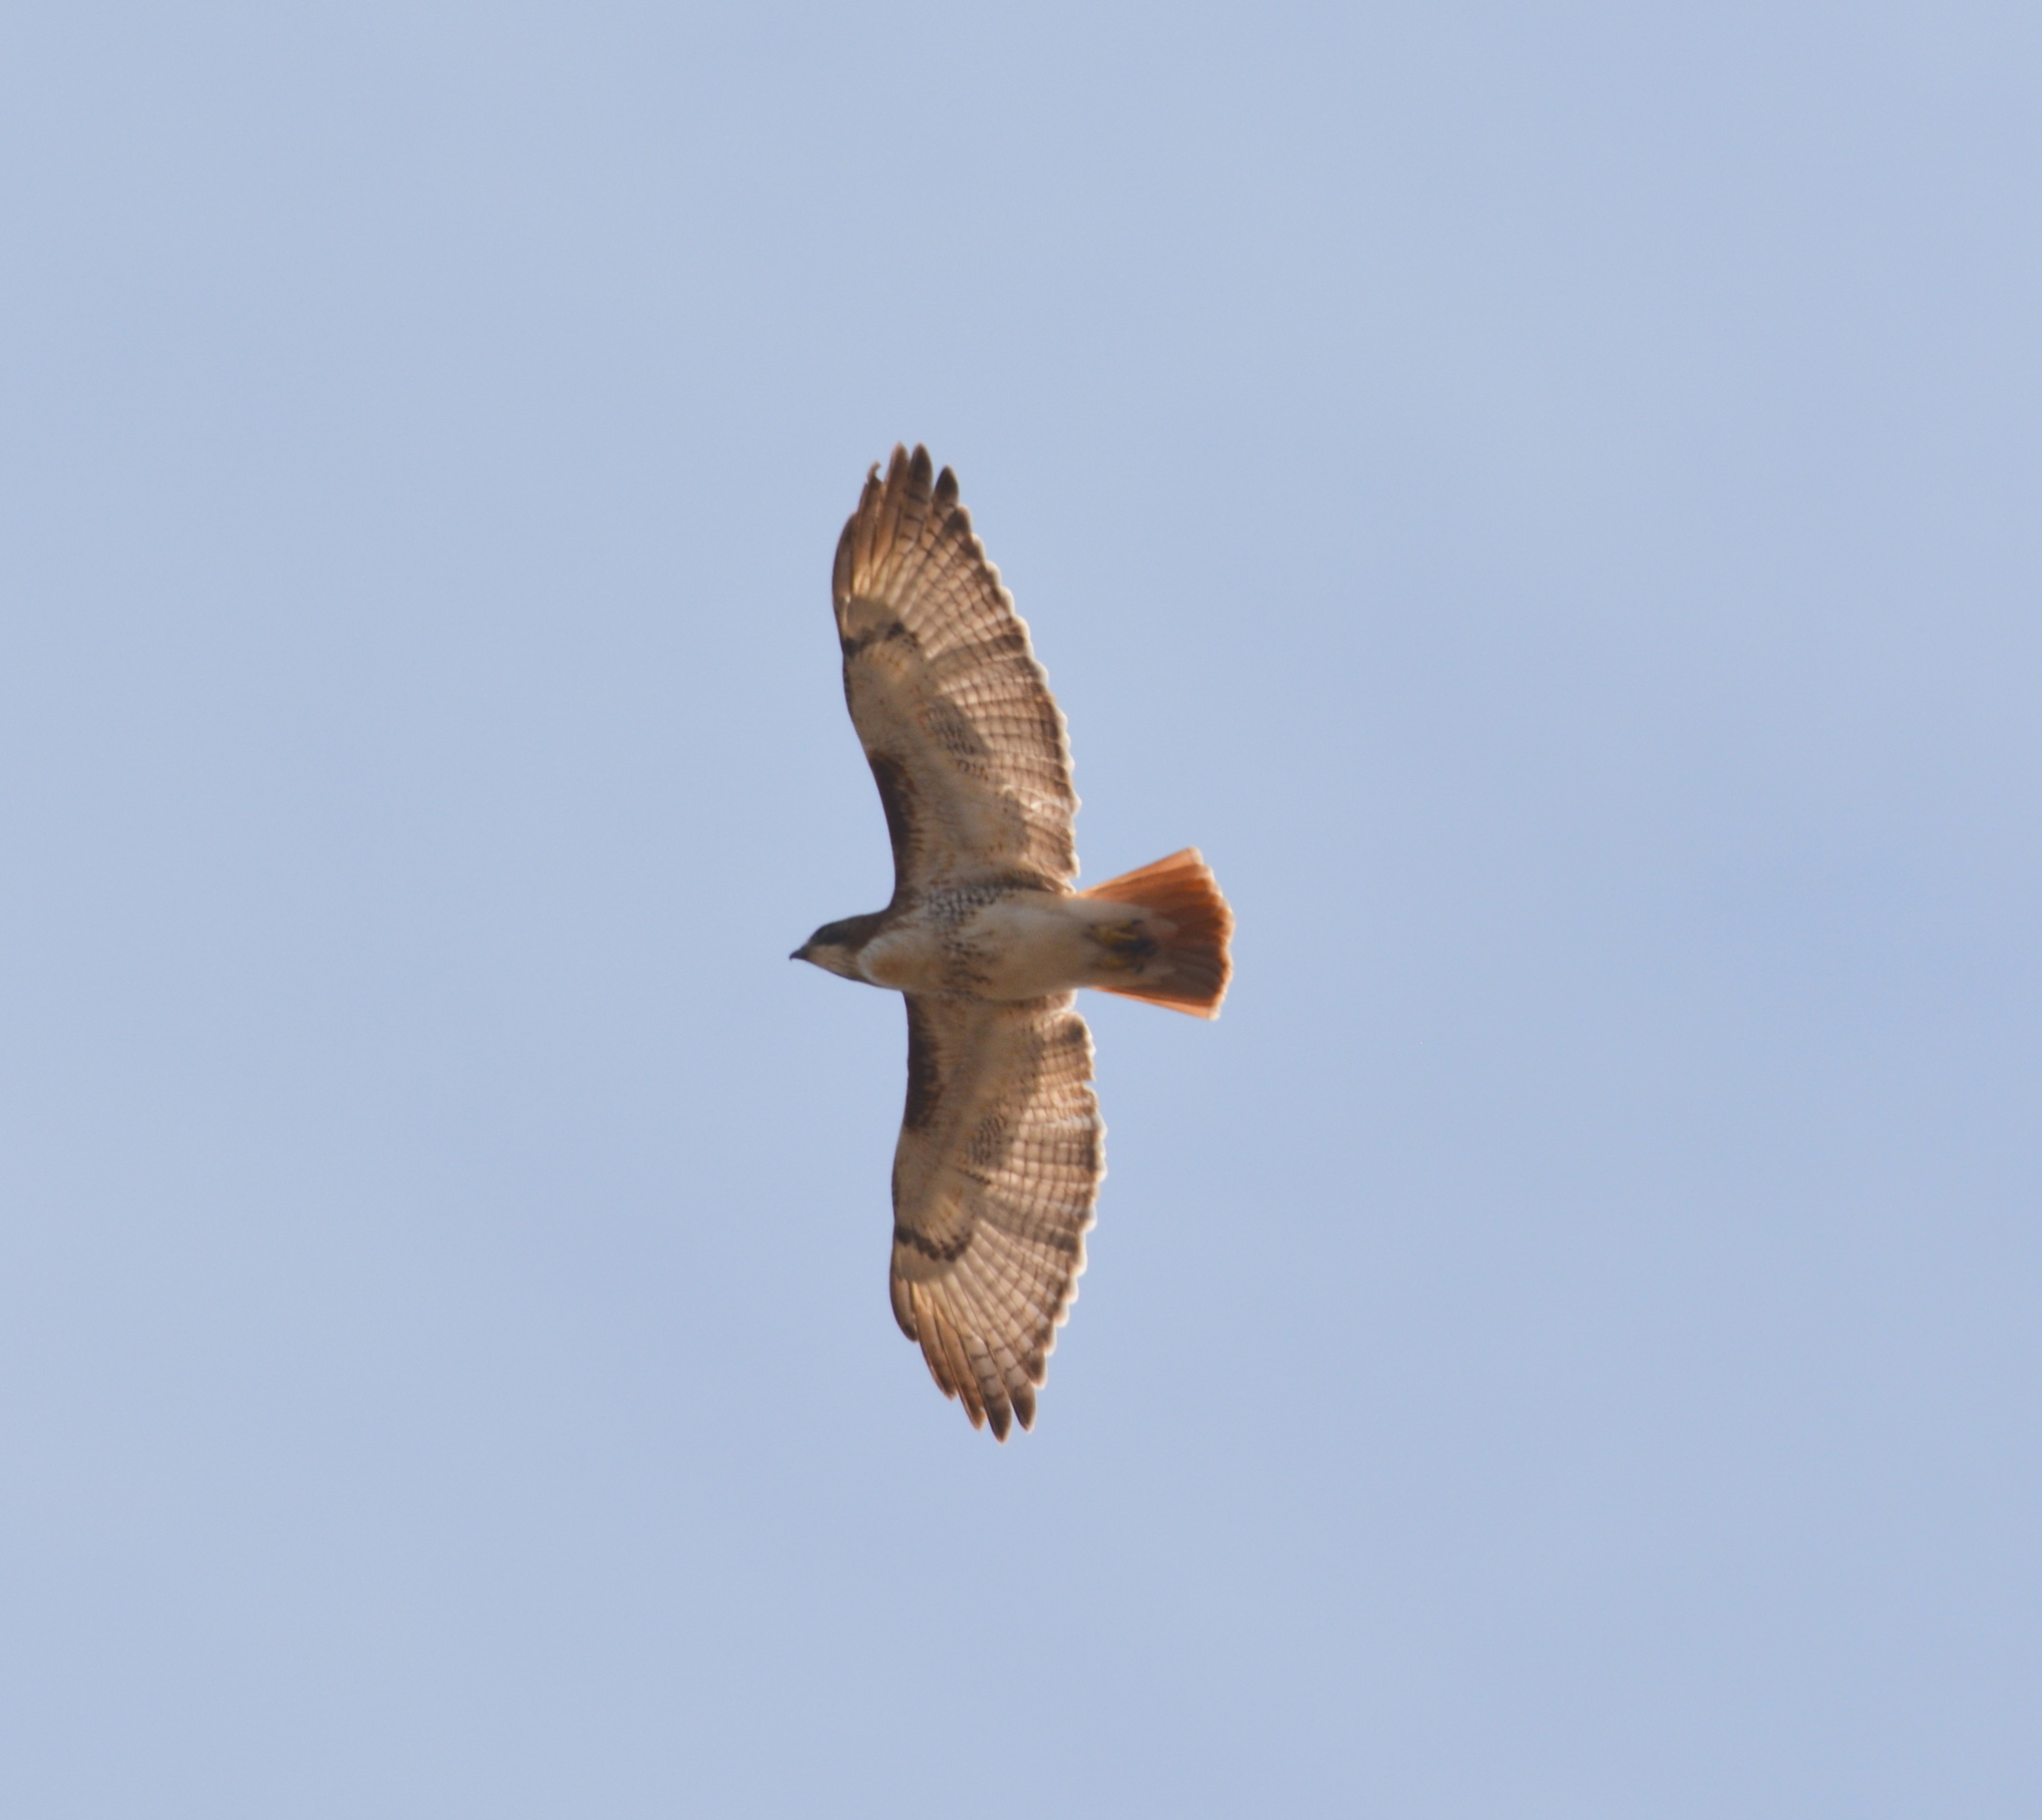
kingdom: Animalia
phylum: Chordata
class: Aves
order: Accipitriformes
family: Accipitridae
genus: Buteo
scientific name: Buteo jamaicensis
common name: Red-tailed hawk
